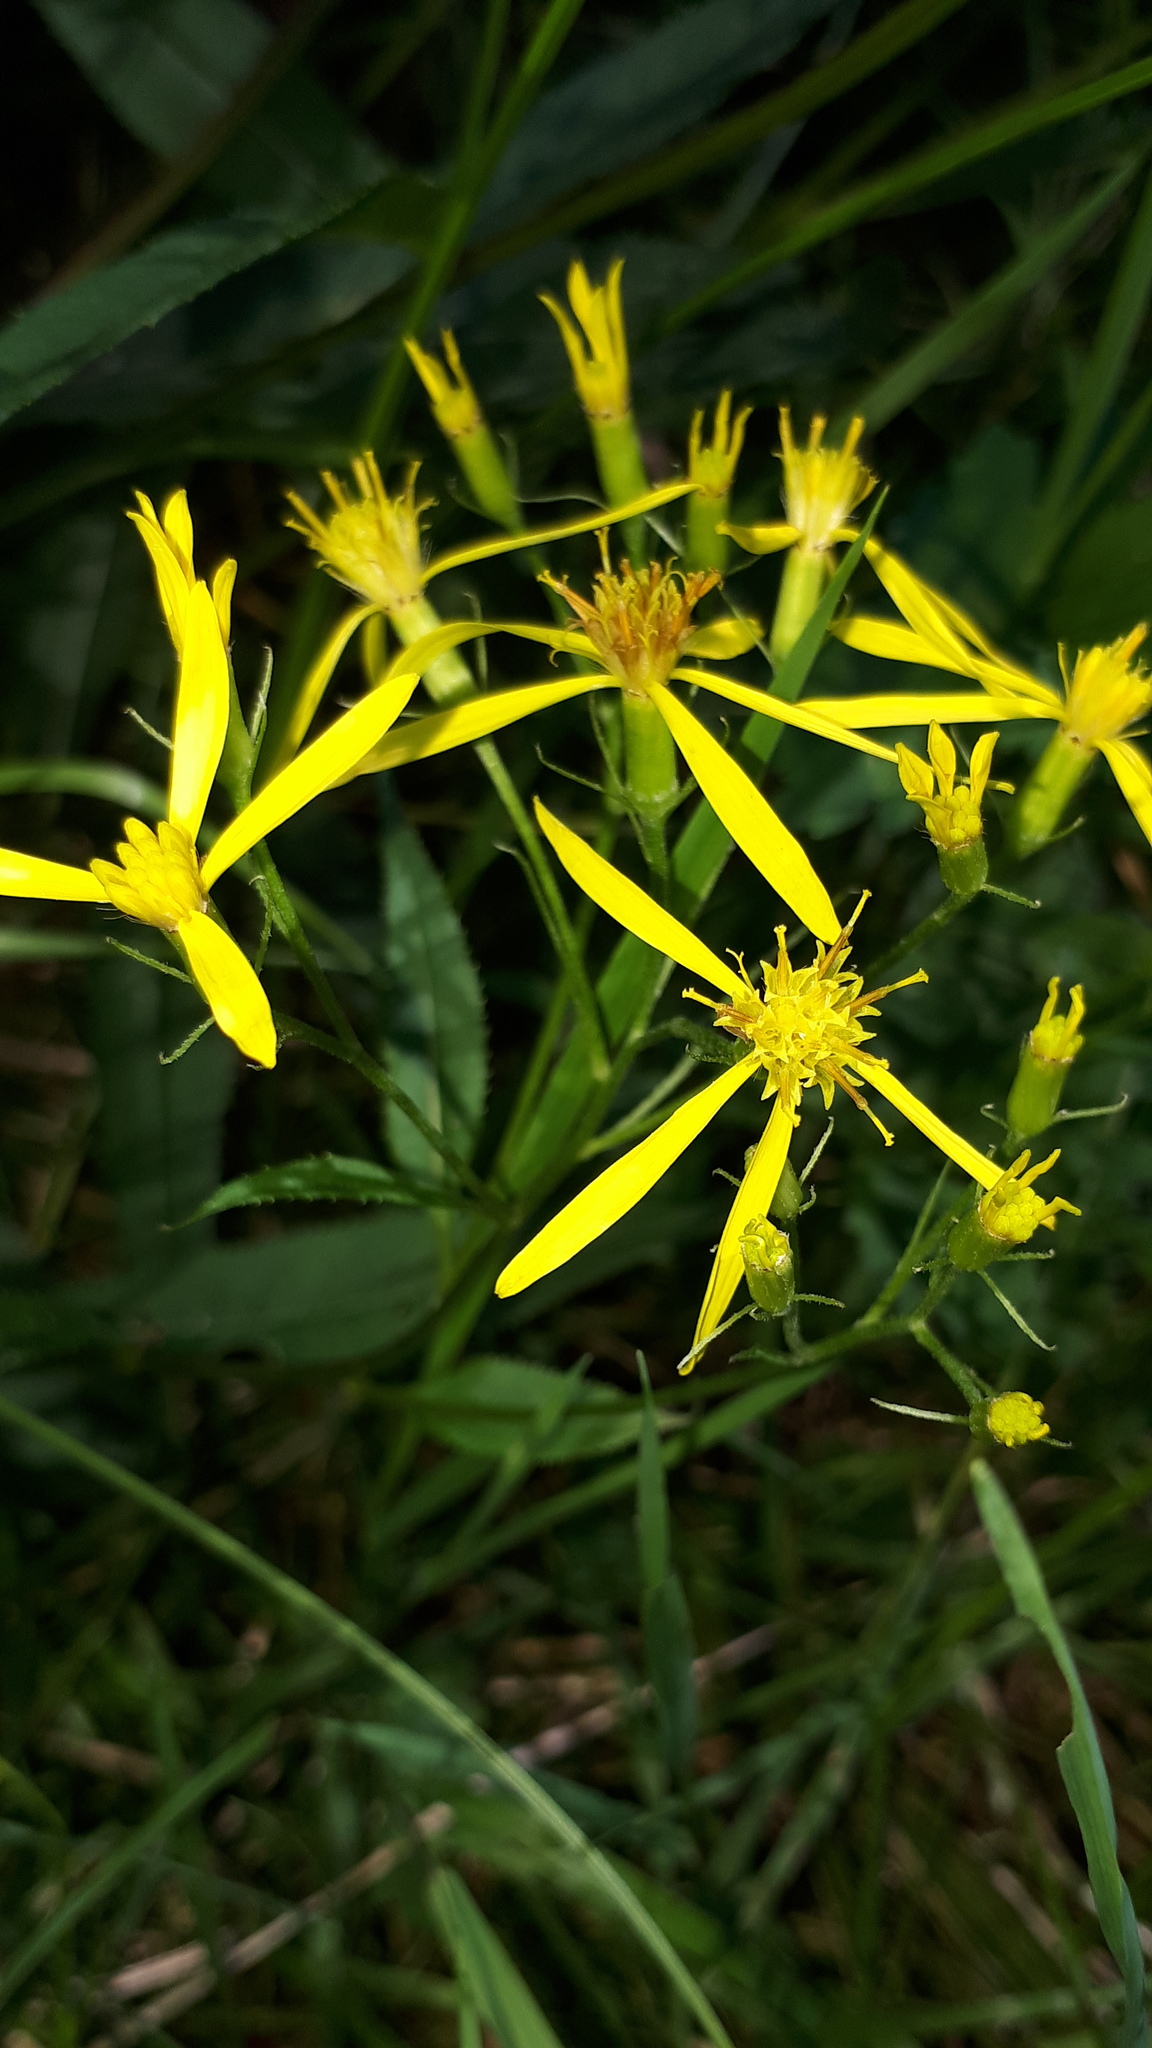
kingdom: Plantae
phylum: Tracheophyta
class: Magnoliopsida
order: Asterales
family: Asteraceae
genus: Senecio
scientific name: Senecio ovatus
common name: Wood ragwort
